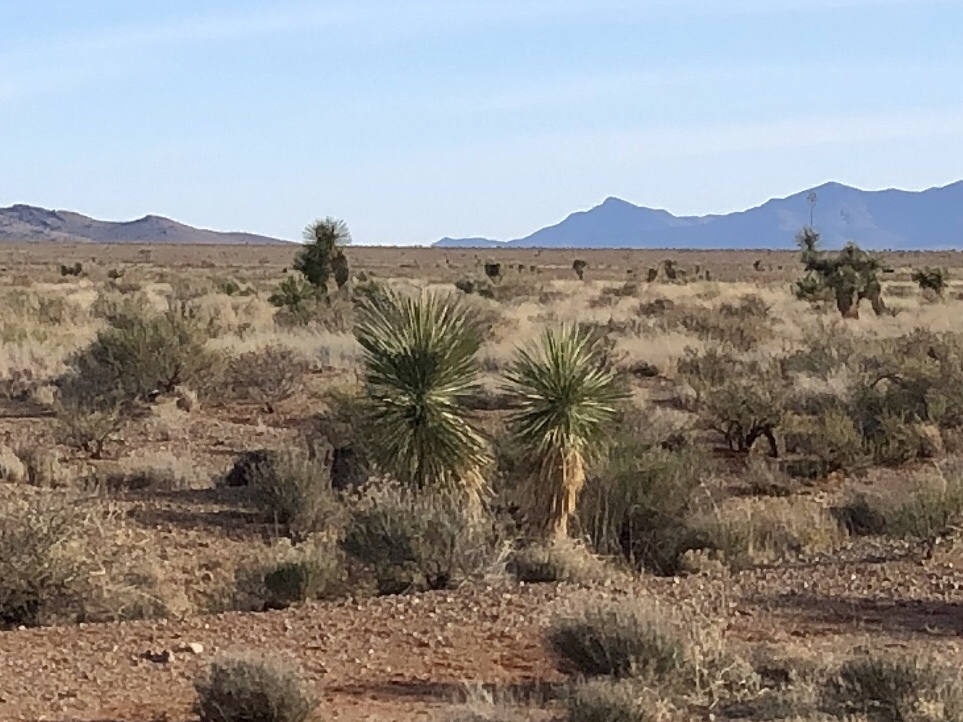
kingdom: Plantae
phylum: Tracheophyta
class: Liliopsida
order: Asparagales
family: Asparagaceae
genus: Yucca
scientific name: Yucca elata
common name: Palmella
